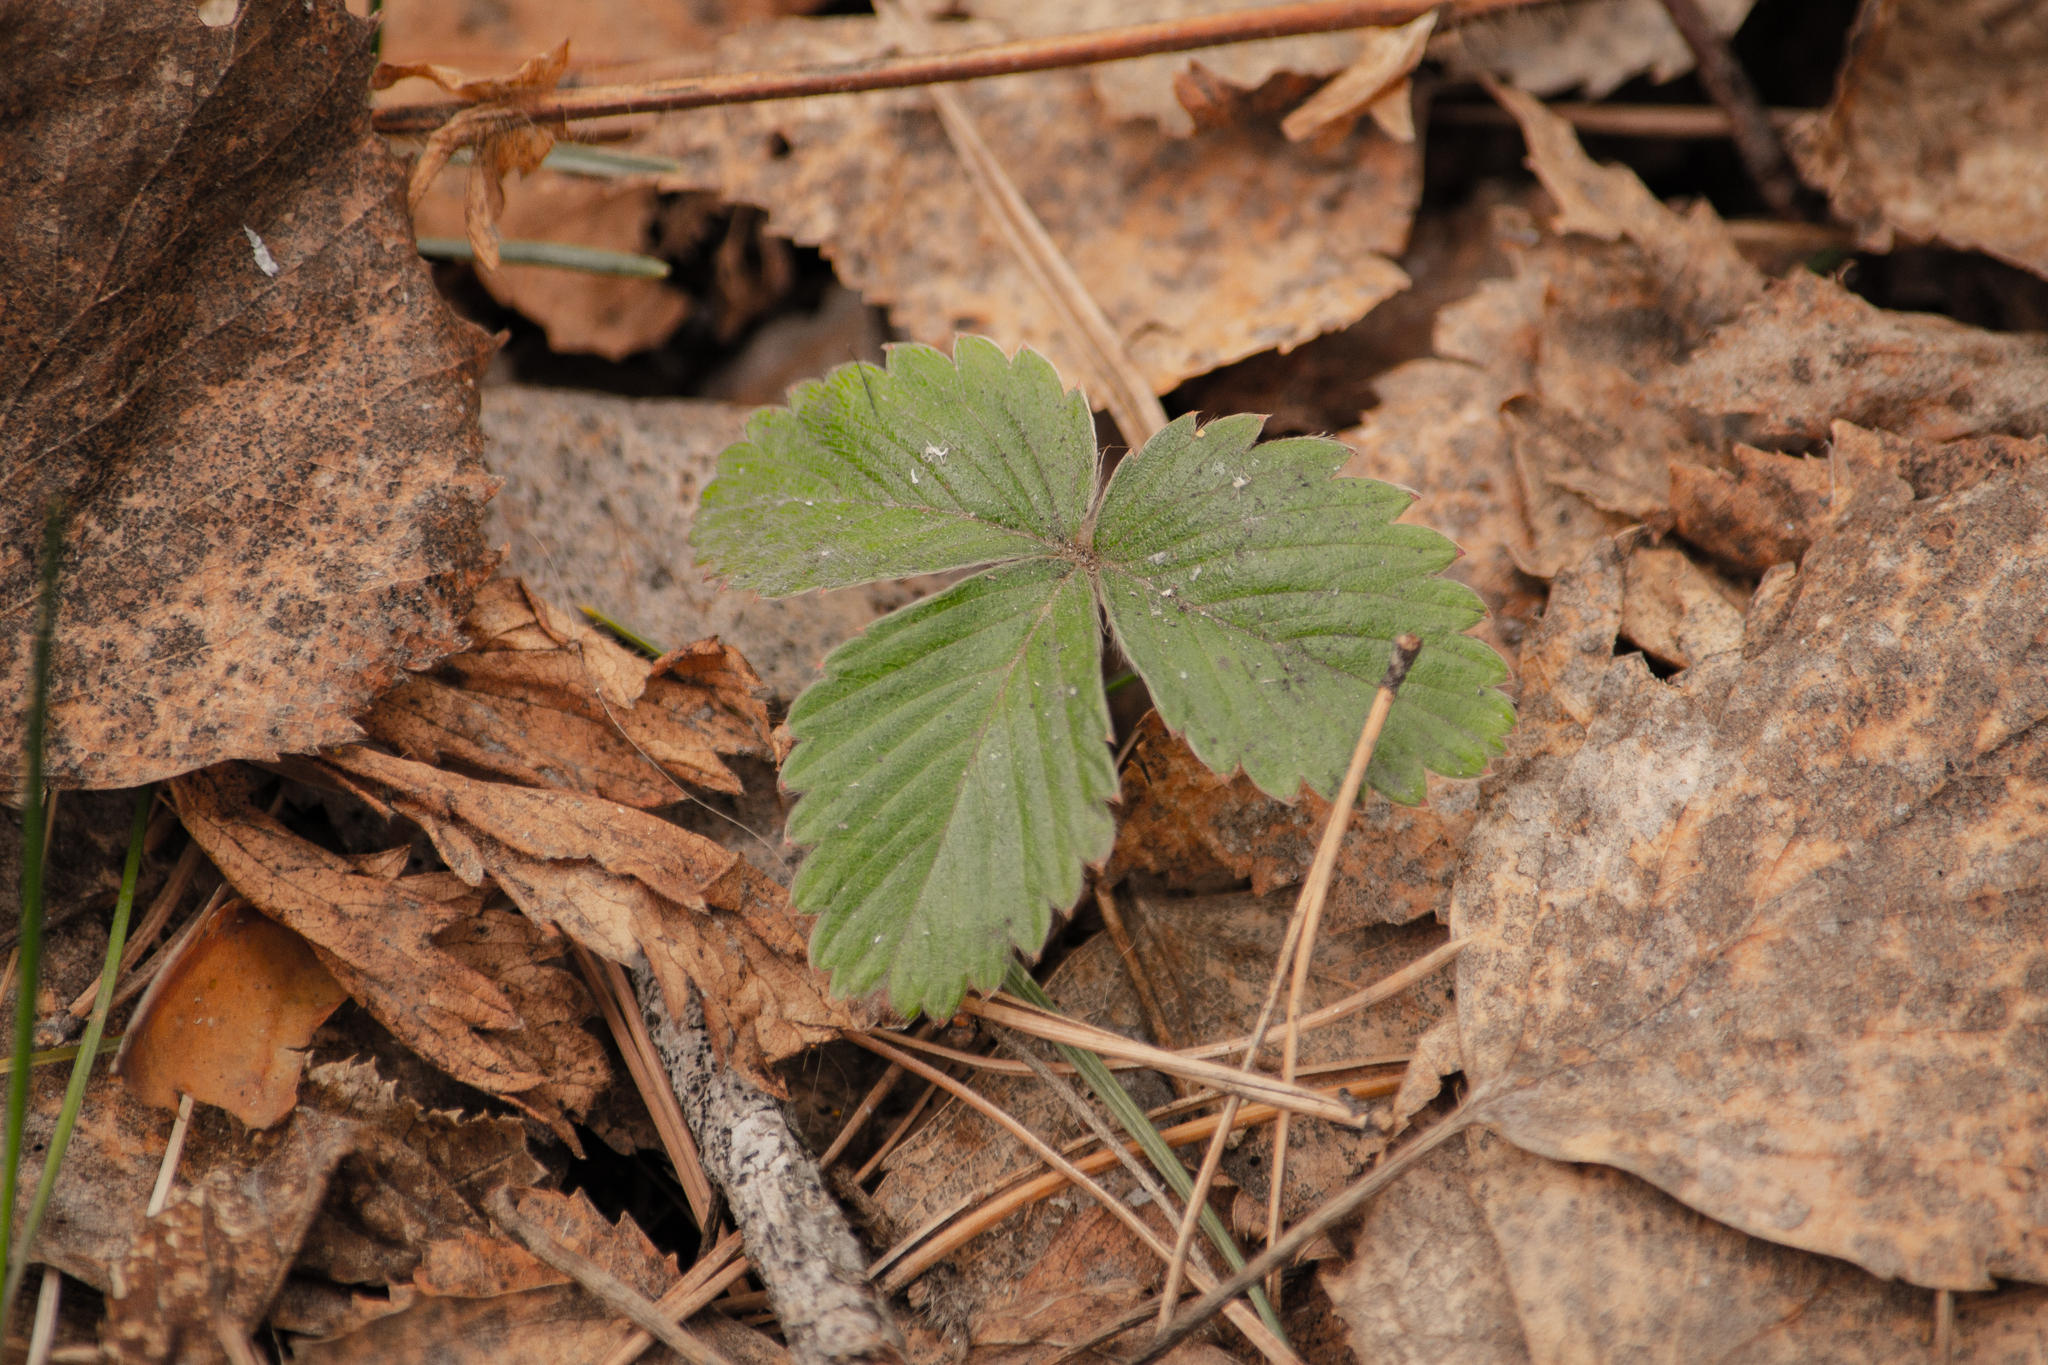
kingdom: Plantae
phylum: Tracheophyta
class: Magnoliopsida
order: Rosales
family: Rosaceae
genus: Fragaria
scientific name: Fragaria vesca
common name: Wild strawberry
